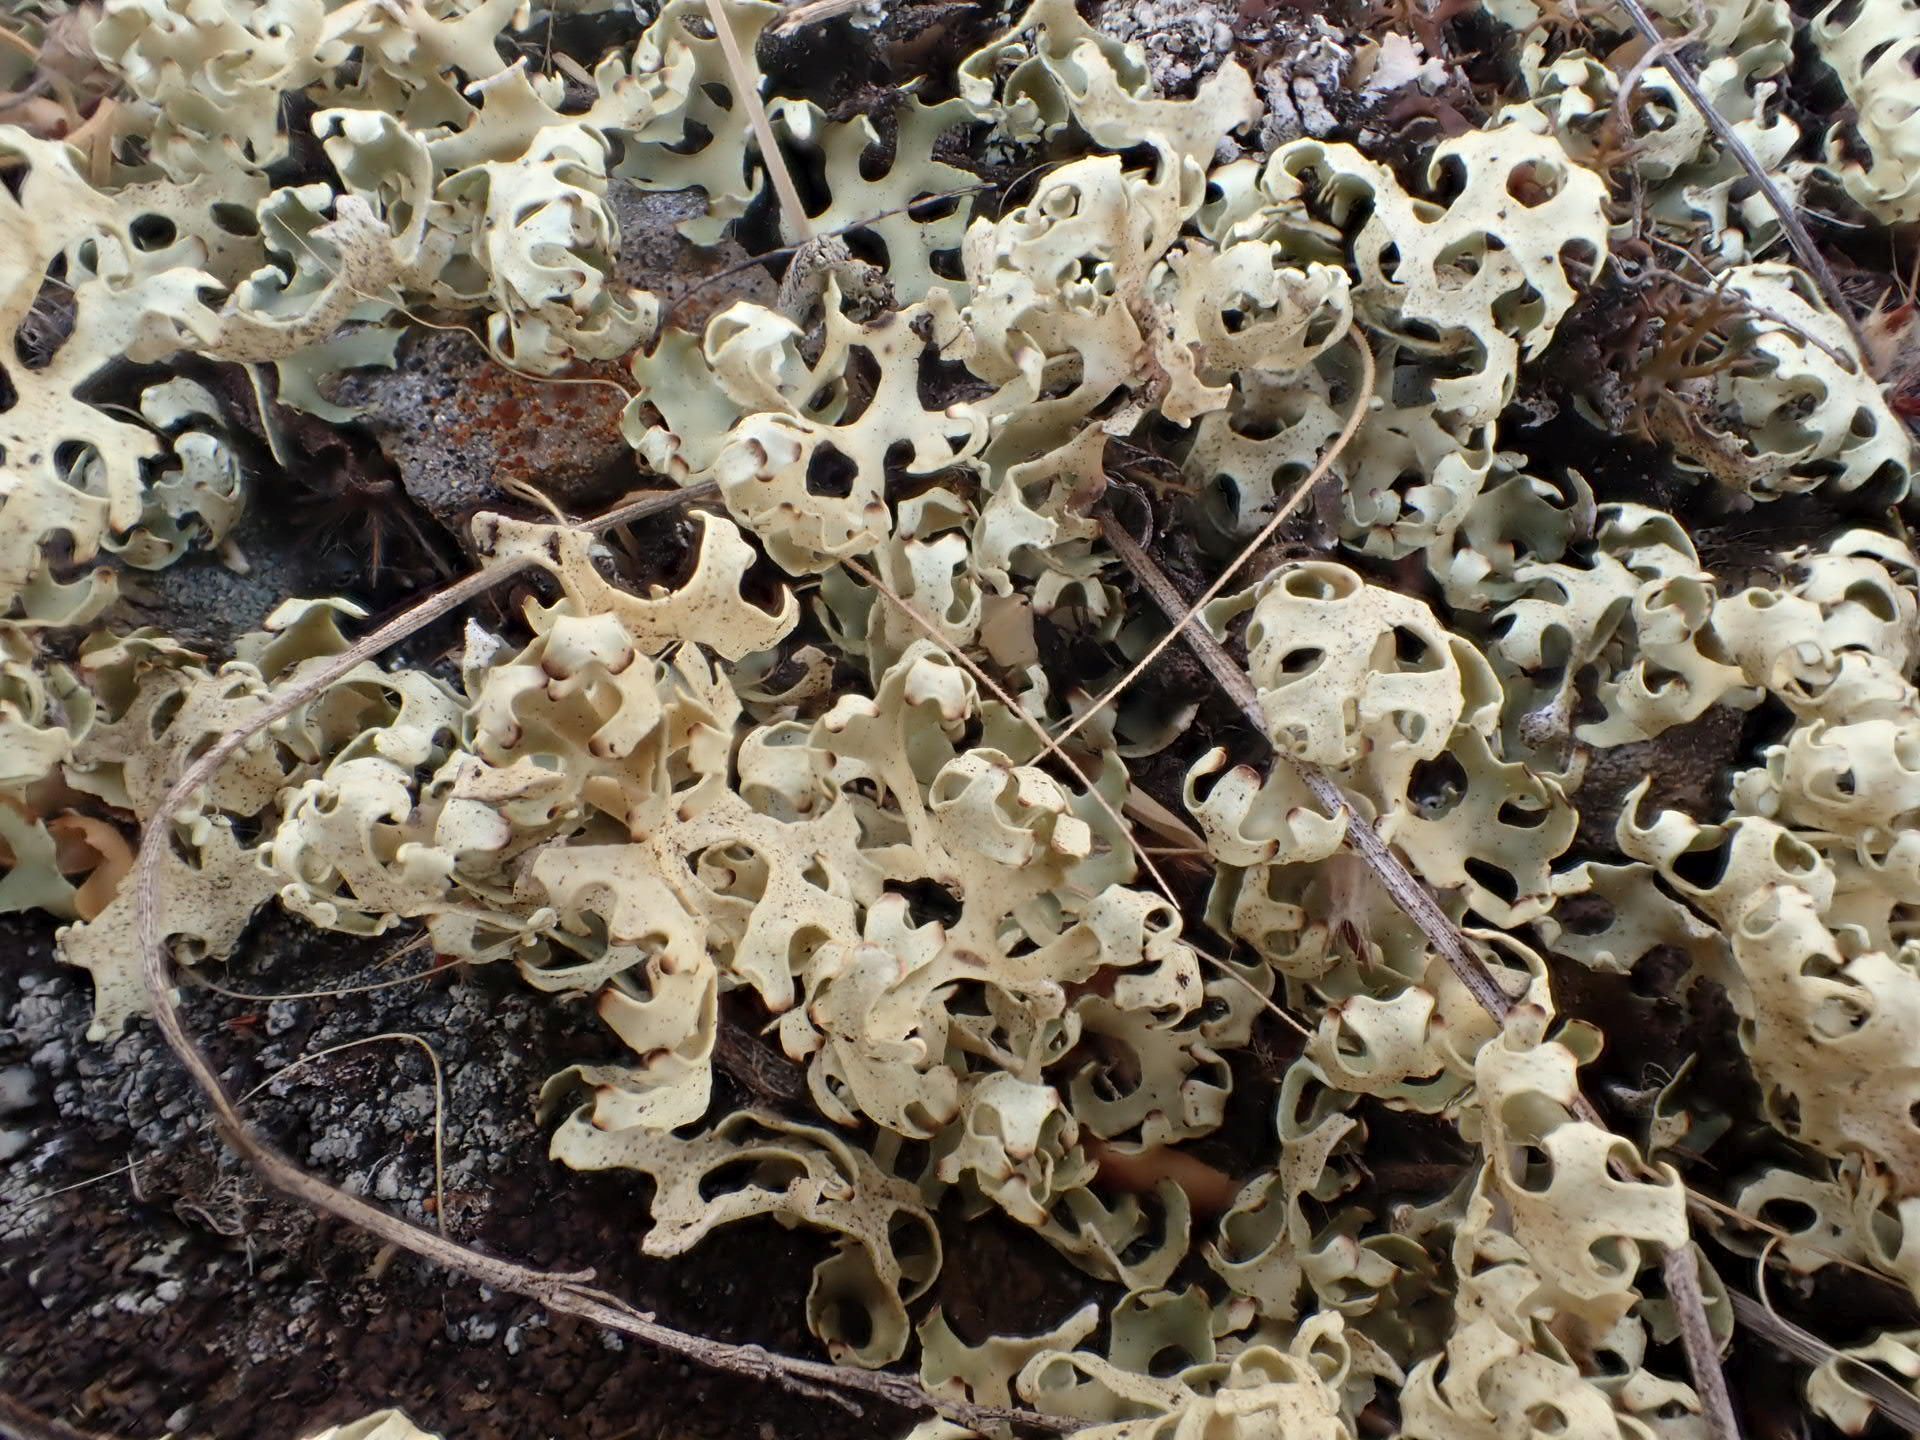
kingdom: Fungi
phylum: Ascomycota
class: Lecanoromycetes
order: Lecanorales
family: Parmeliaceae
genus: Xanthoparmelia
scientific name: Xanthoparmelia semiviridis
